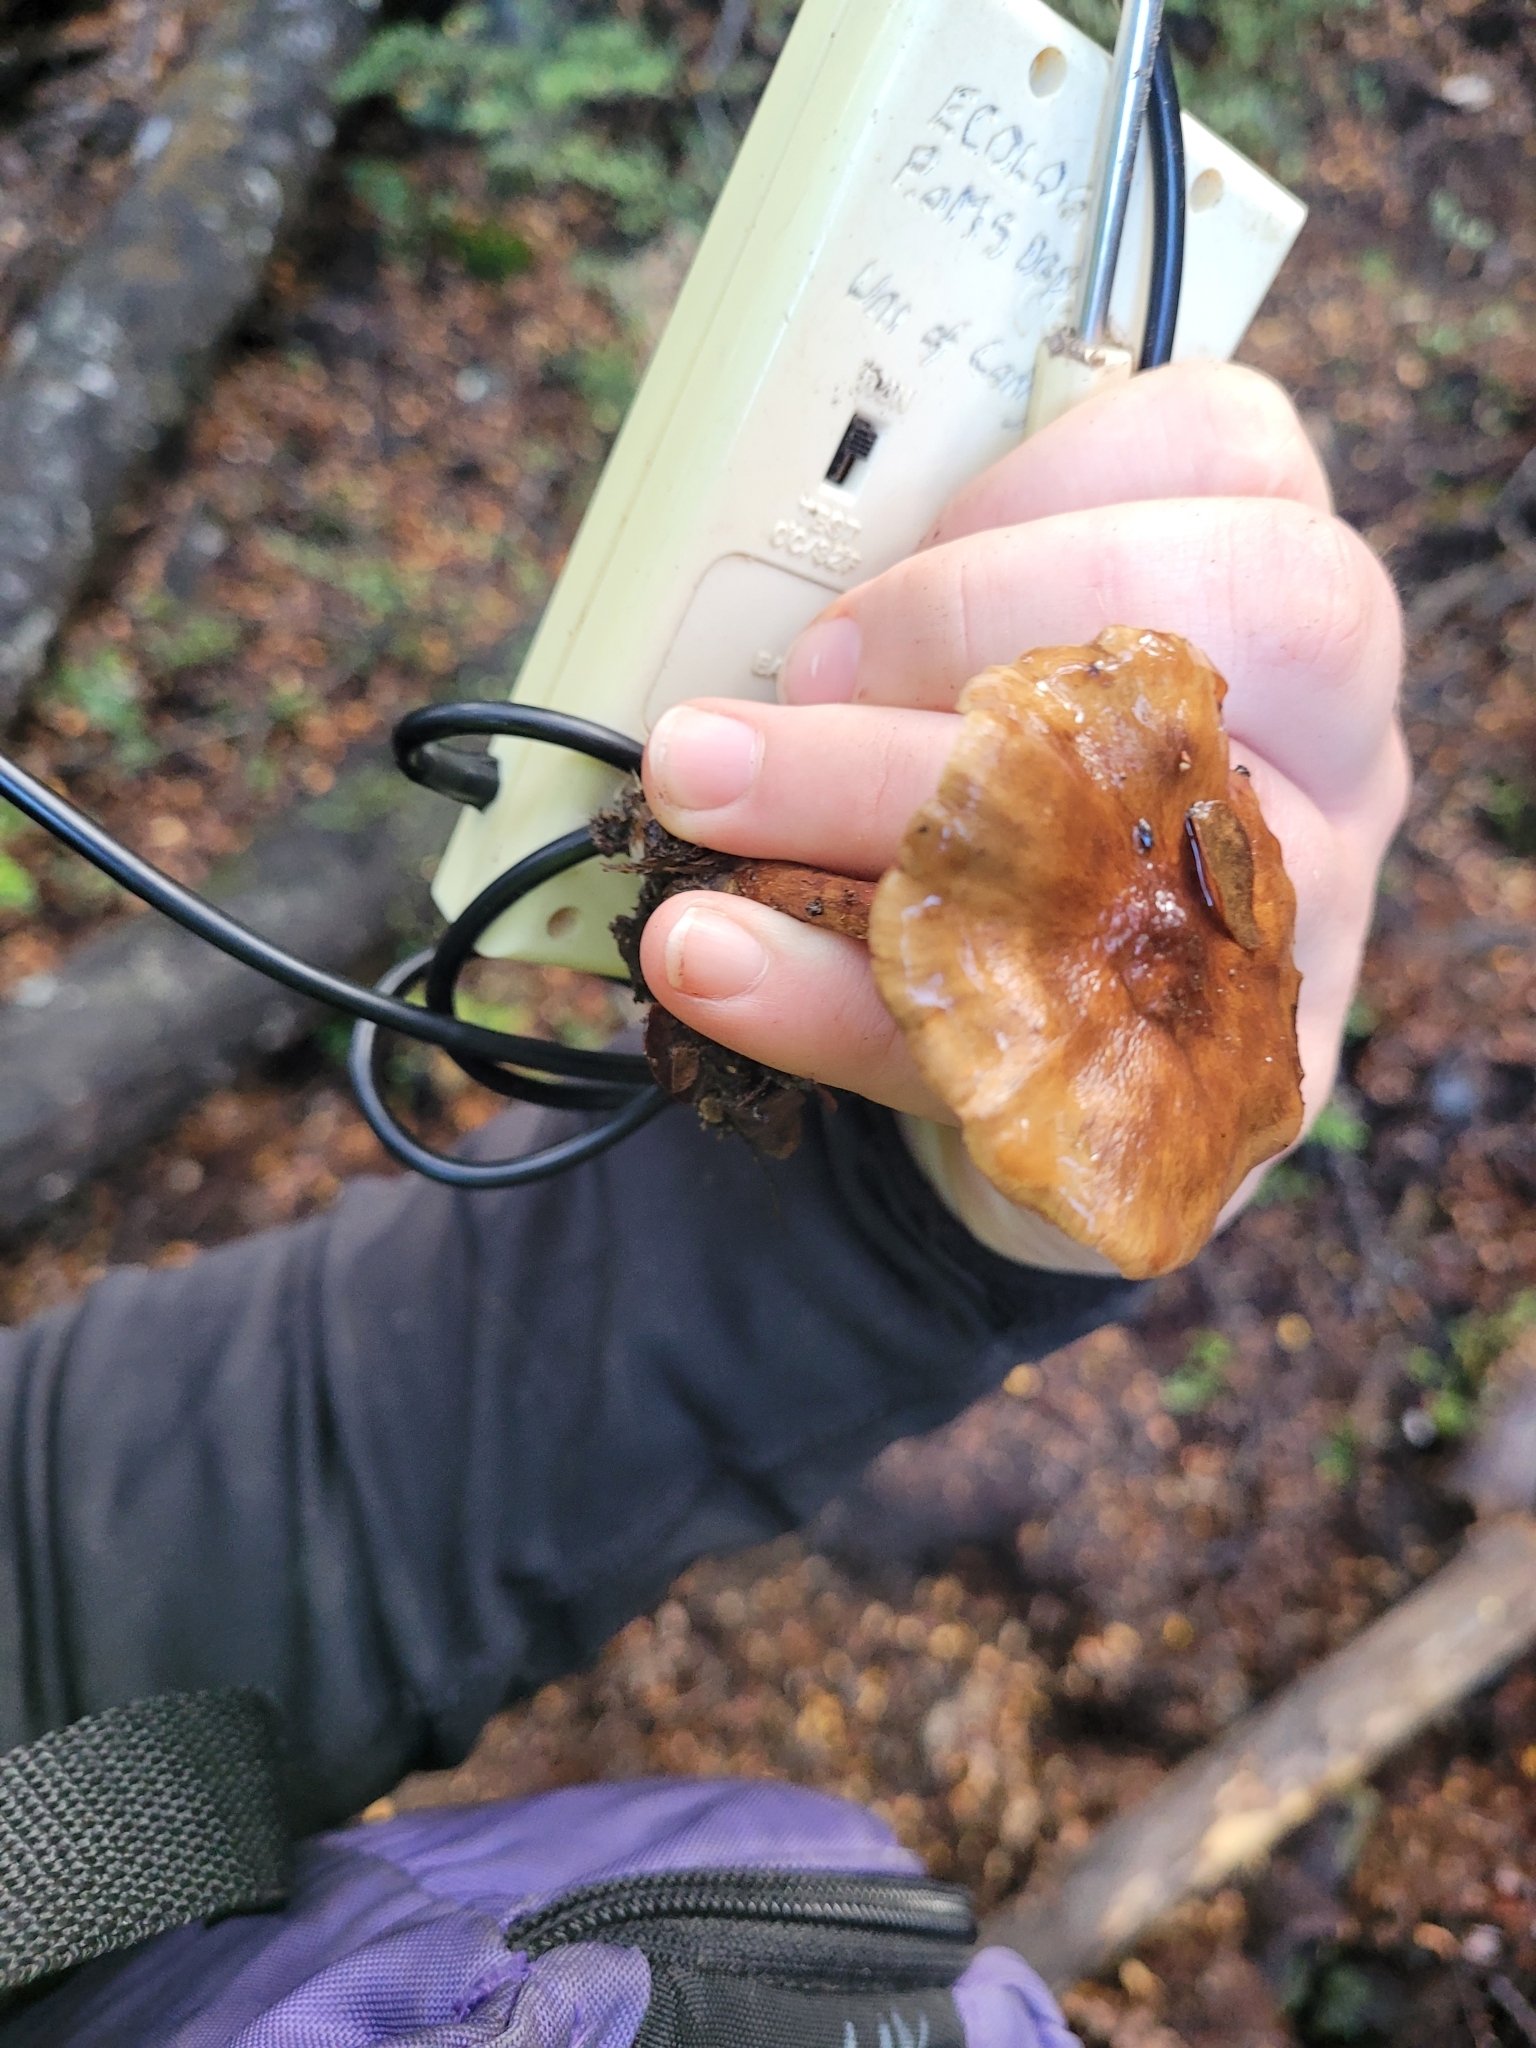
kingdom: Fungi
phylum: Basidiomycota
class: Agaricomycetes
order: Agaricales
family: Strophariaceae
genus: Pholiota
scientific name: Pholiota multicingulata
